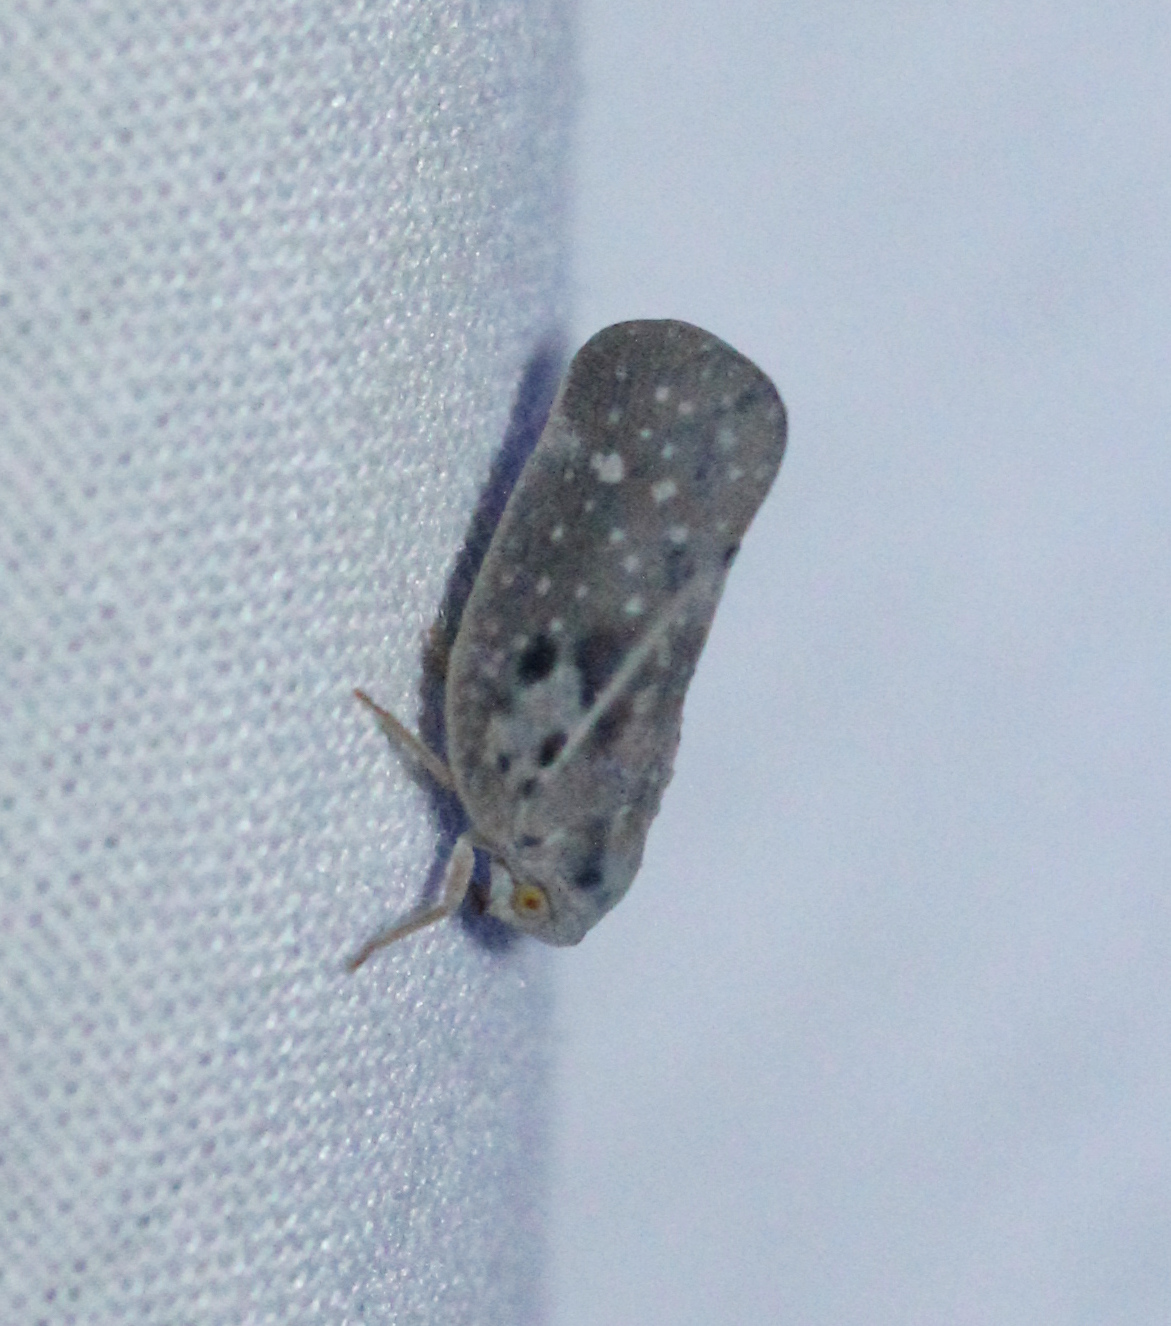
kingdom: Animalia
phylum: Arthropoda
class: Insecta
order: Hemiptera
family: Flatidae
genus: Metcalfa
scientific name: Metcalfa pruinosa
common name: Citrus flatid planthopper
